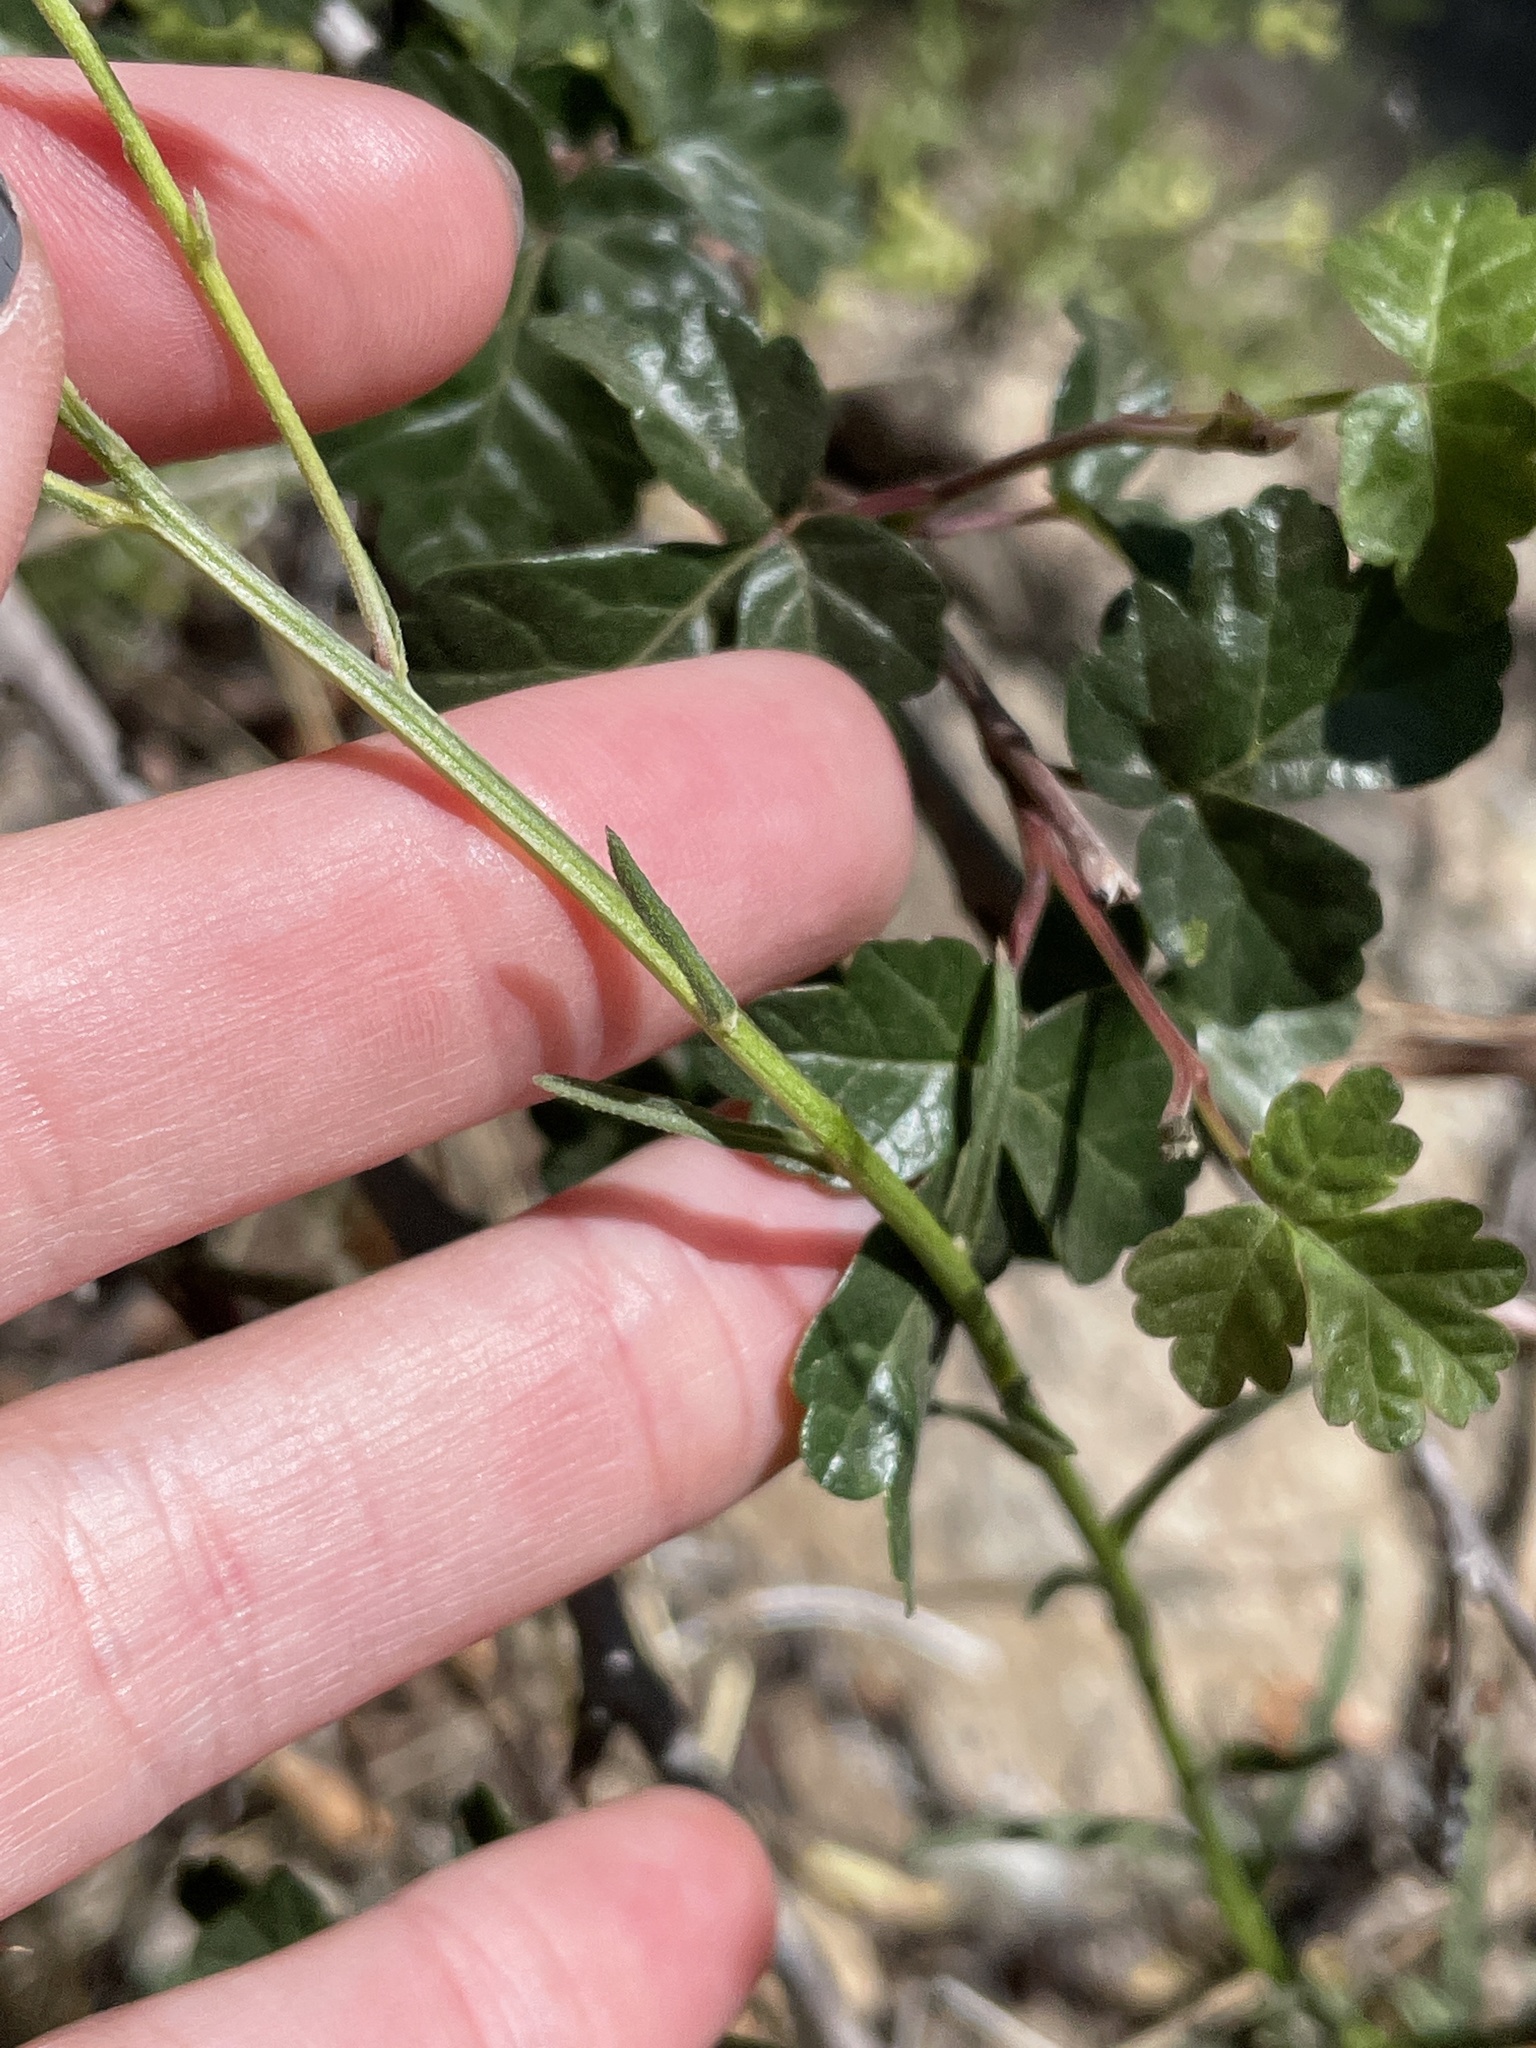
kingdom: Plantae
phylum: Tracheophyta
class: Magnoliopsida
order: Asterales
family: Asteraceae
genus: Erigeron
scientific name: Erigeron foliosus
